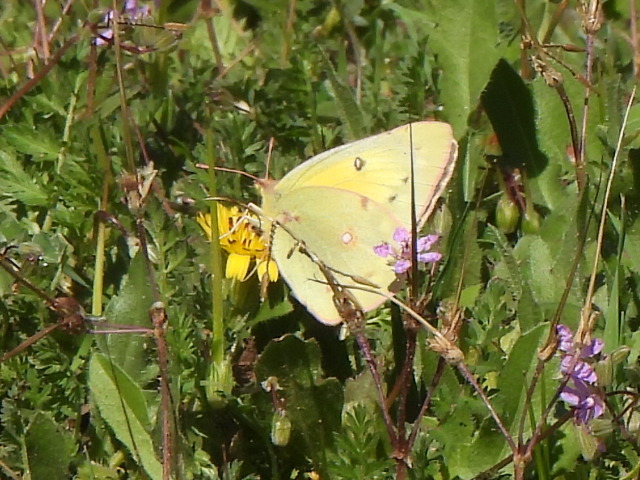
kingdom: Animalia
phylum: Arthropoda
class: Insecta
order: Lepidoptera
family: Pieridae
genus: Colias
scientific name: Colias eurytheme
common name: Alfalfa butterfly
